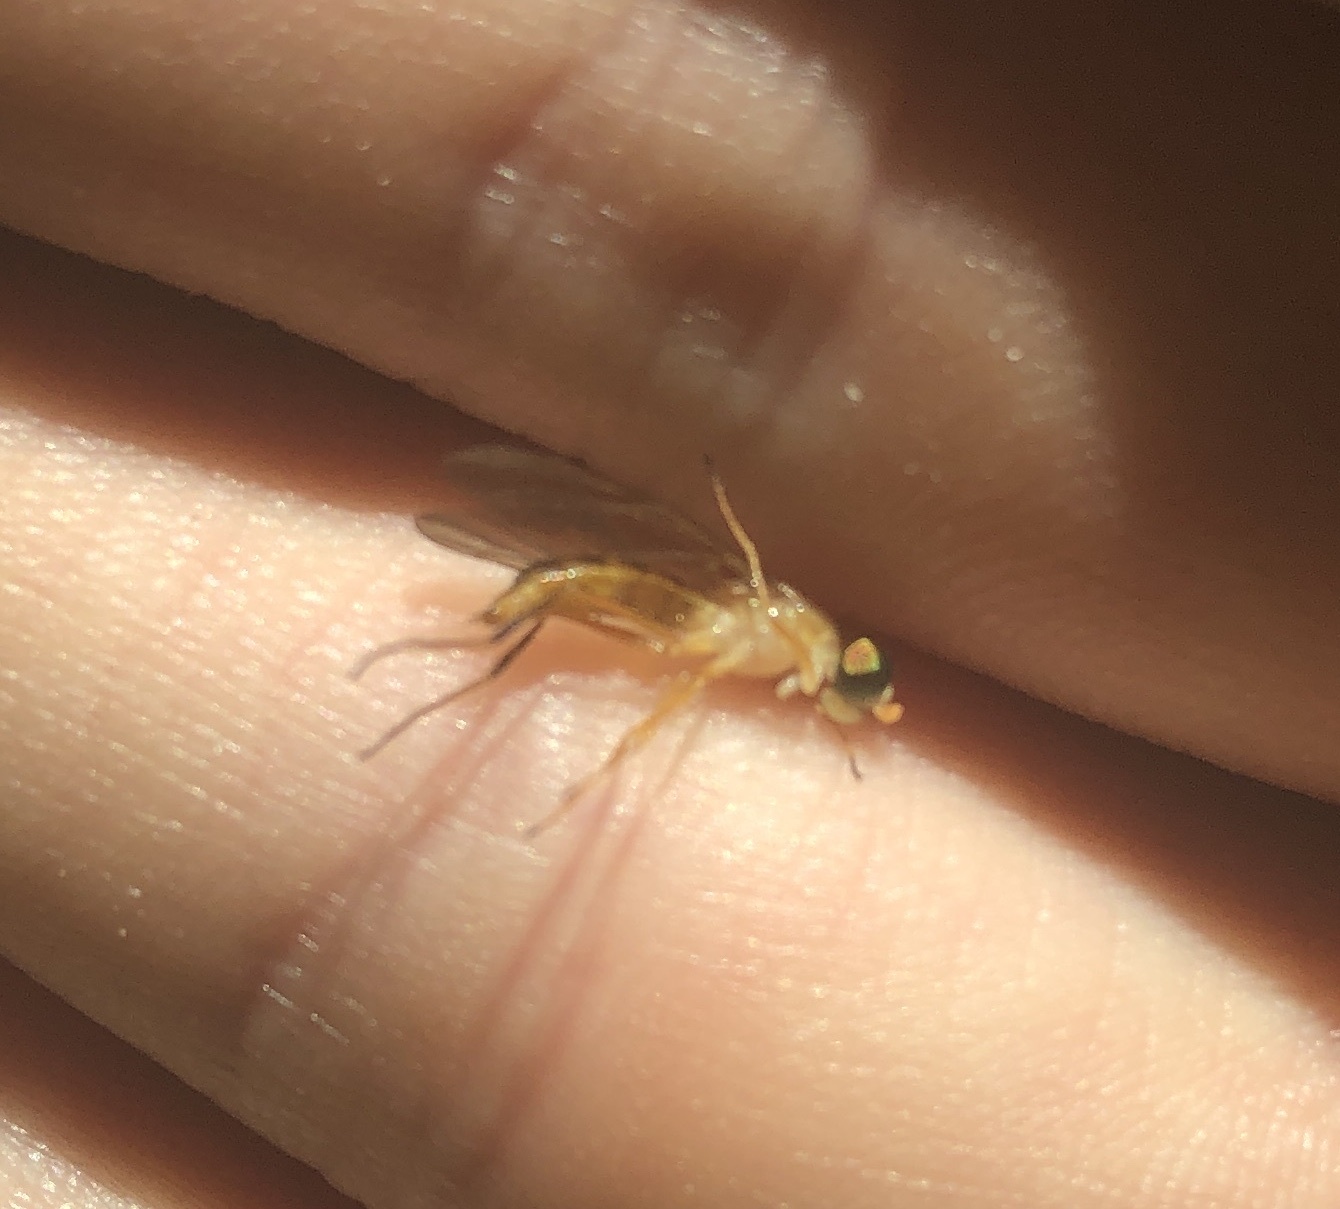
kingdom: Animalia
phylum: Arthropoda
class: Insecta
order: Diptera
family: Stratiomyidae
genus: Ptecticus
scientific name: Ptecticus trivittatus
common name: Compost fly
